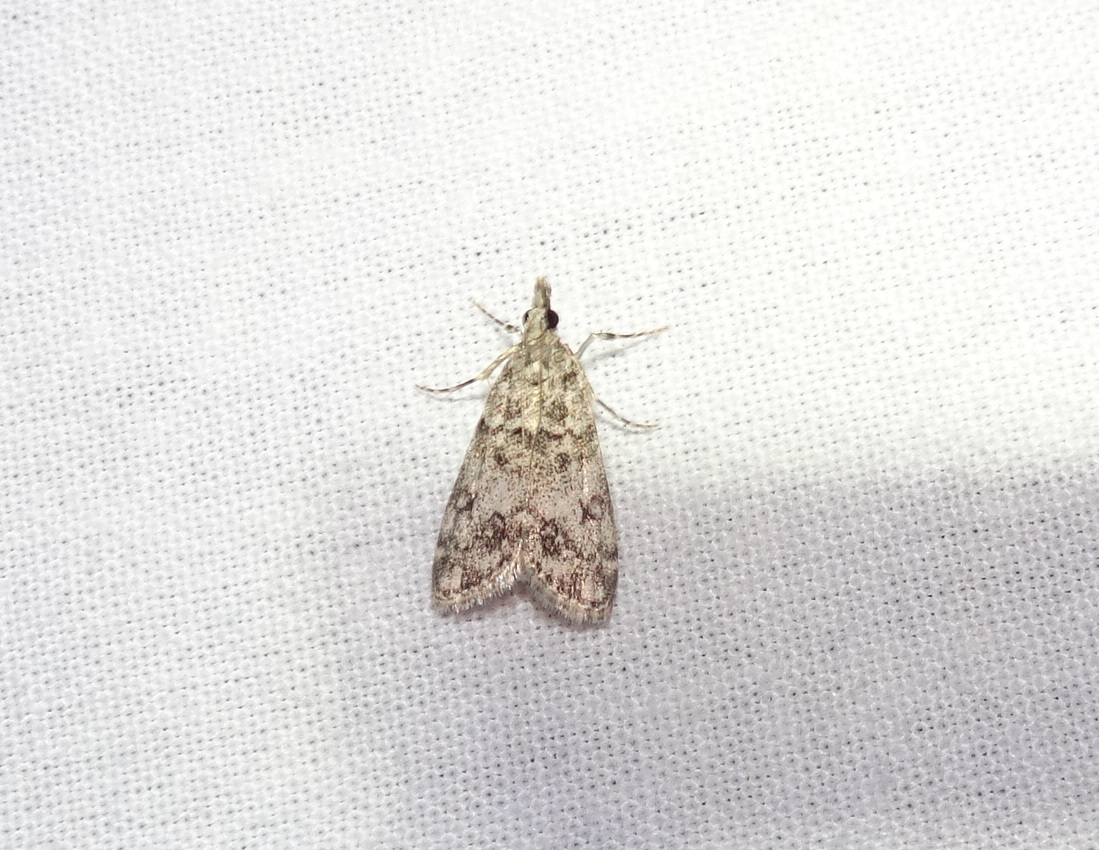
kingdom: Animalia
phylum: Arthropoda
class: Insecta
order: Lepidoptera
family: Crambidae
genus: Eudonia
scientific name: Eudonia lacustrata
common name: Little grey
